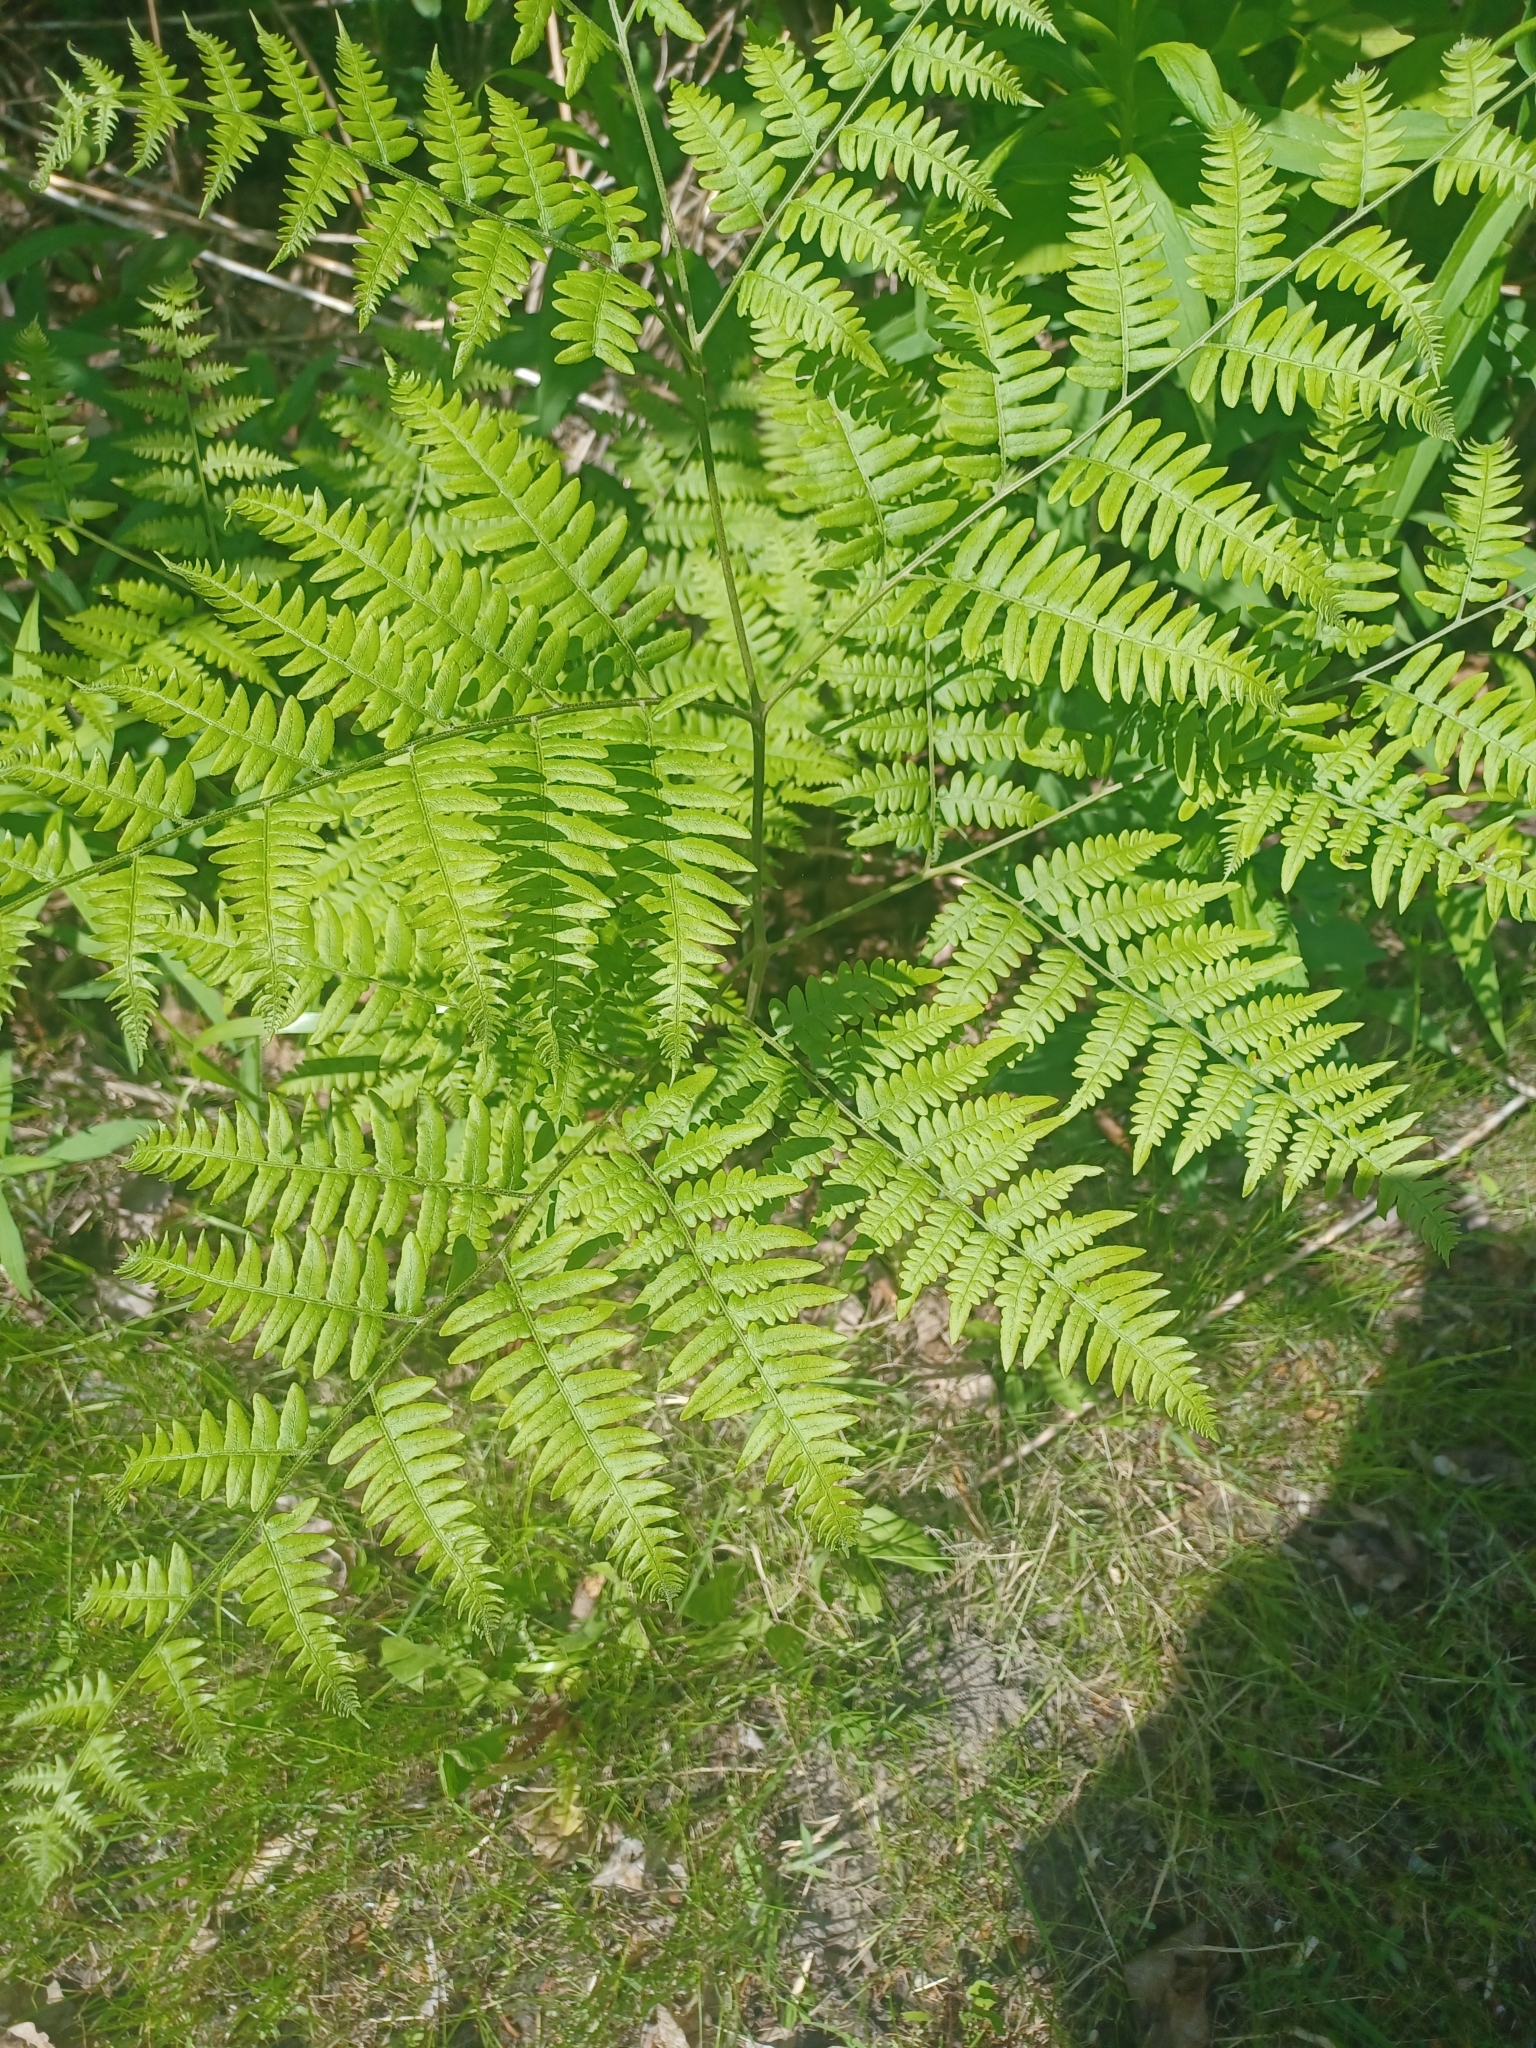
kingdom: Plantae
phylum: Tracheophyta
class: Polypodiopsida
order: Polypodiales
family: Dennstaedtiaceae
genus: Pteridium
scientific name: Pteridium aquilinum
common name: Bracken
